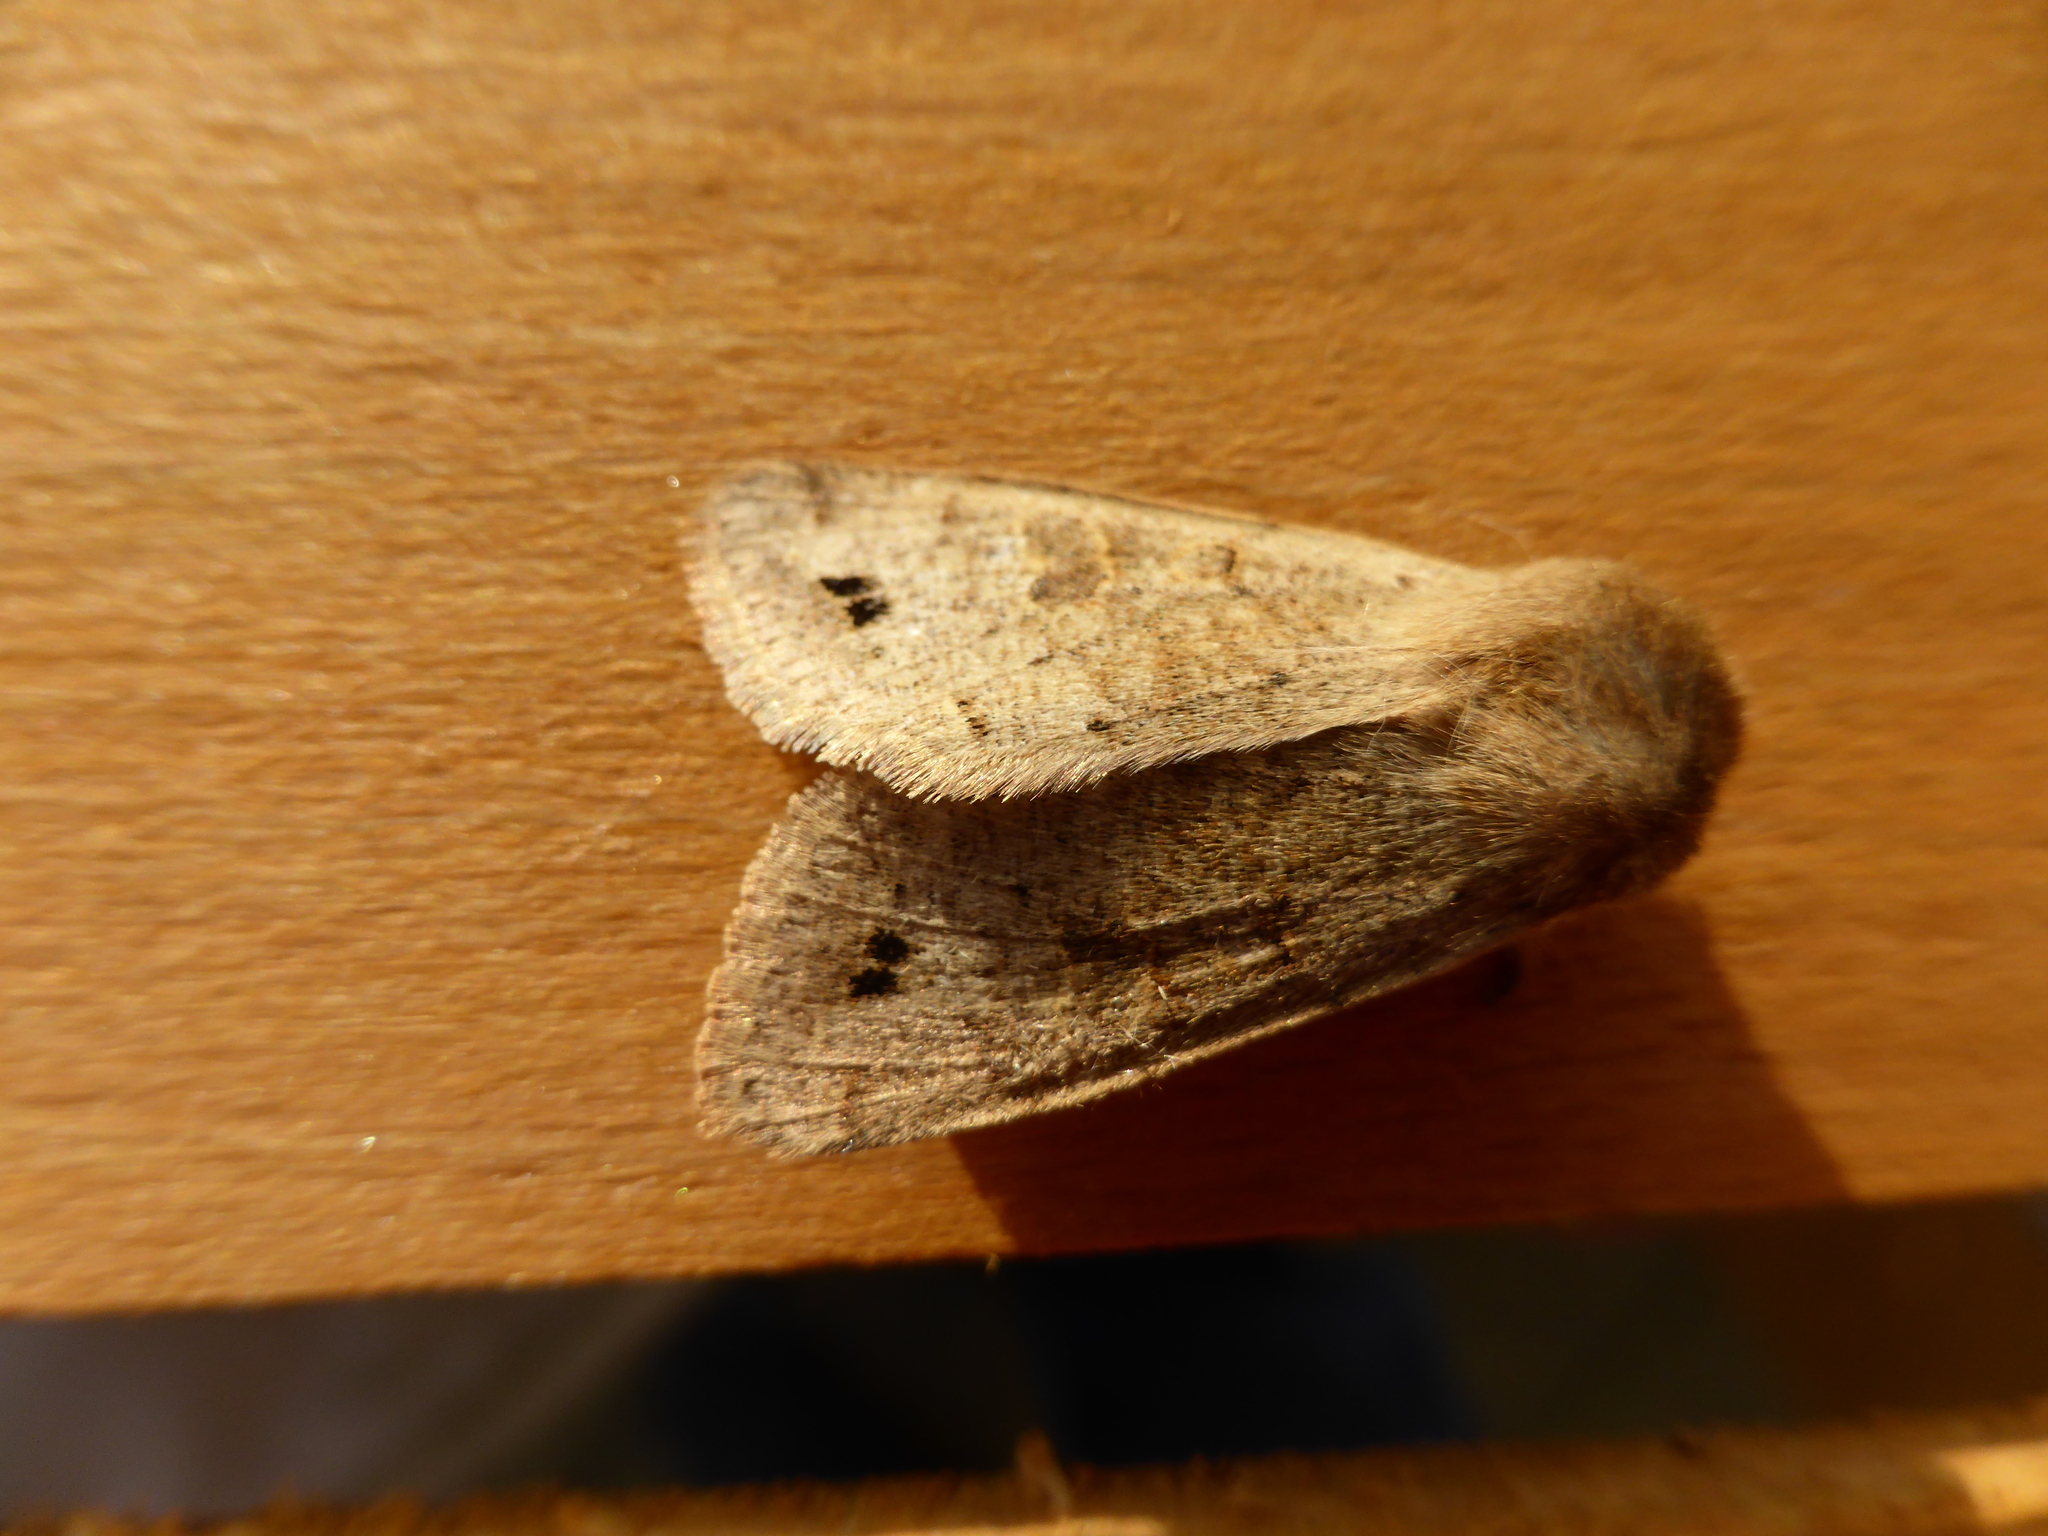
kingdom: Animalia
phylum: Arthropoda
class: Insecta
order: Lepidoptera
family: Noctuidae
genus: Anorthoa
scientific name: Anorthoa munda
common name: Twin-spotted quaker
